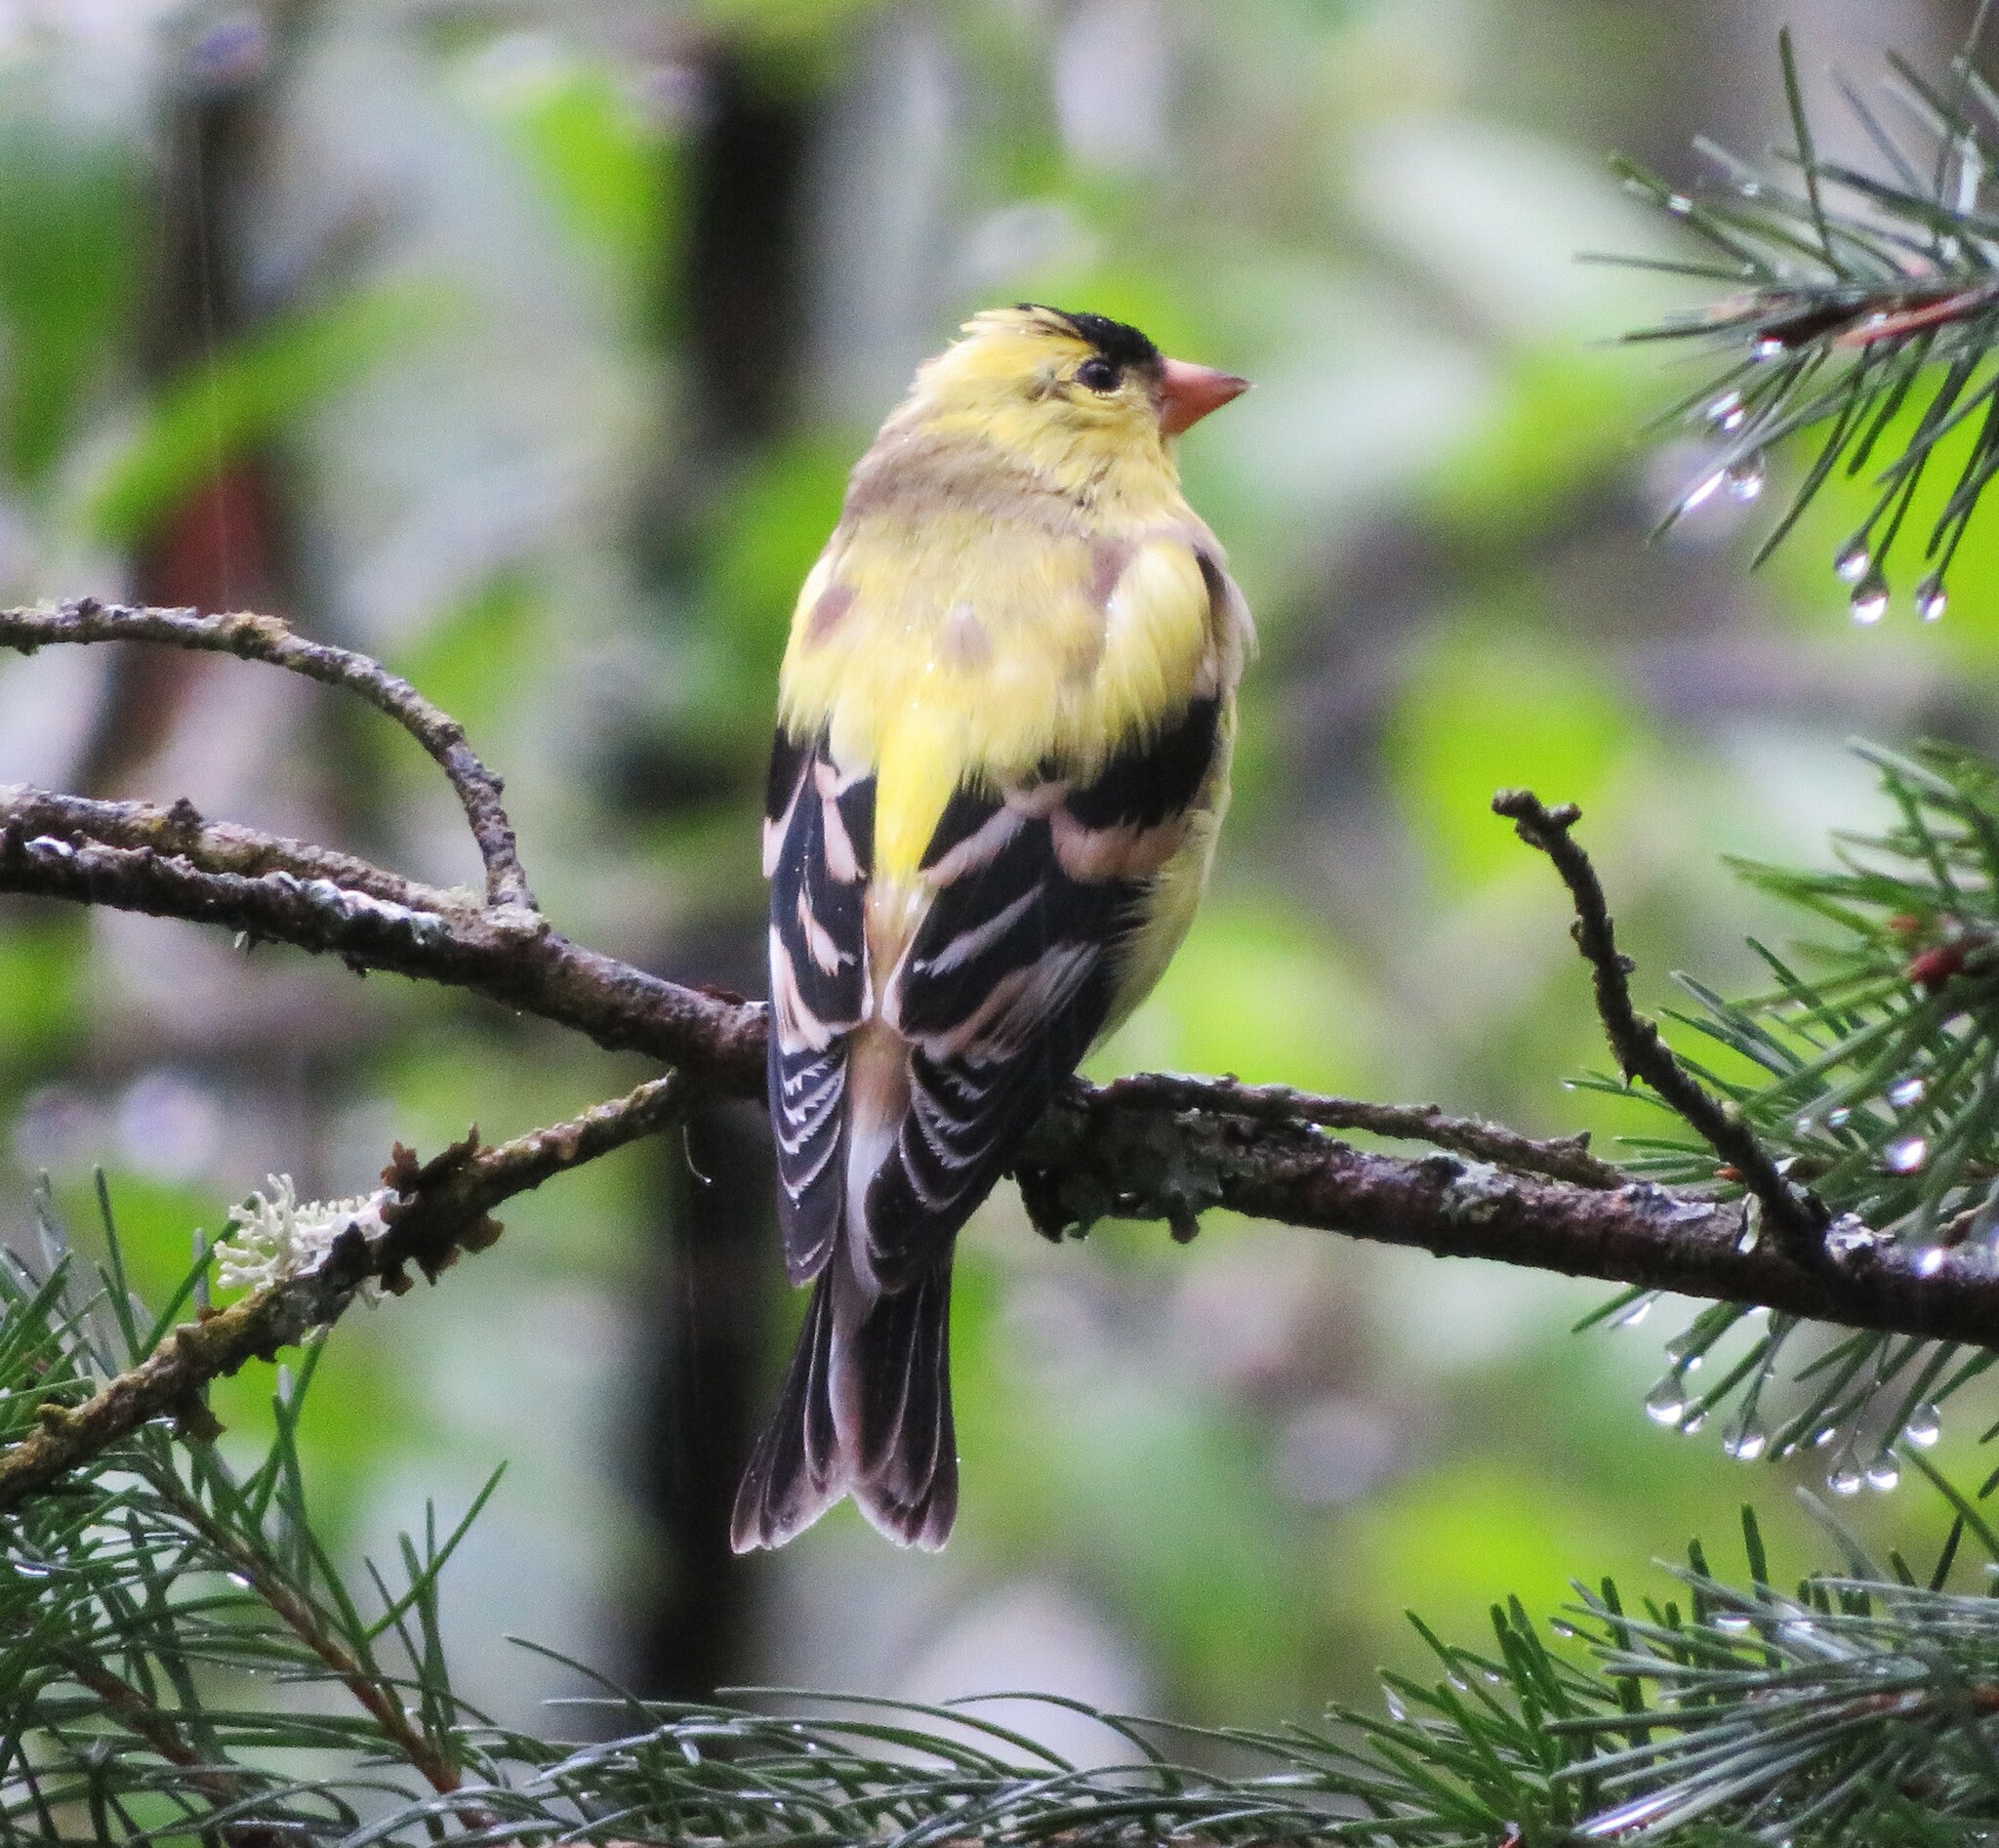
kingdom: Animalia
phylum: Chordata
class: Aves
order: Passeriformes
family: Fringillidae
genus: Spinus
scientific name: Spinus tristis
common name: American goldfinch
